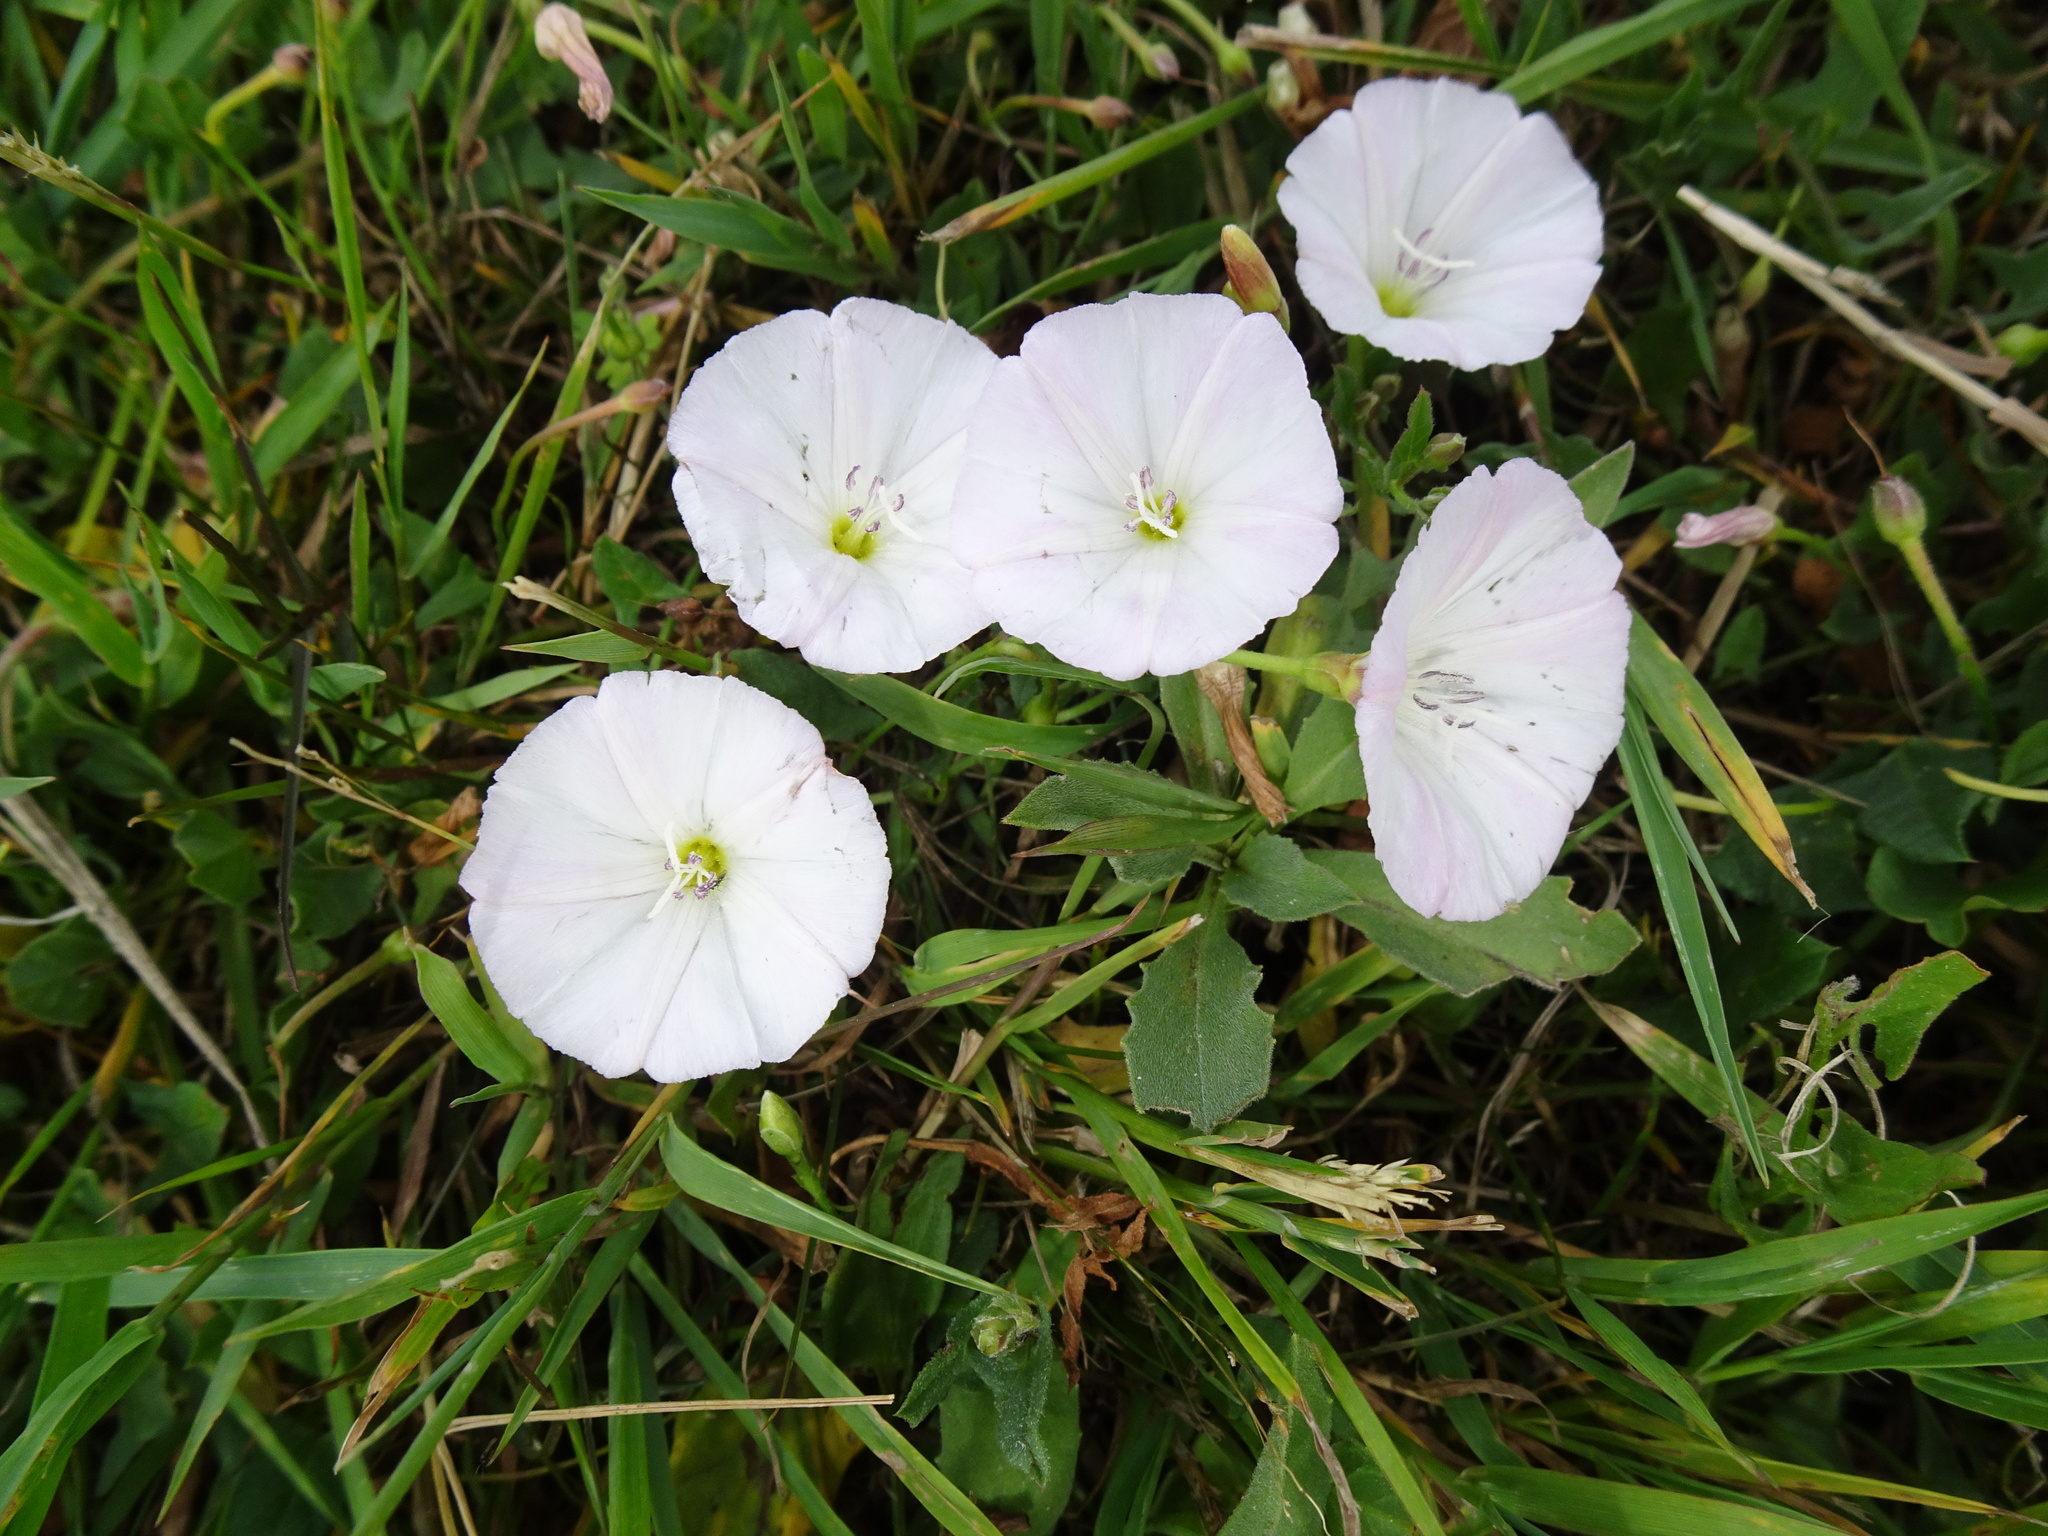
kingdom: Plantae
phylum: Tracheophyta
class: Magnoliopsida
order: Solanales
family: Convolvulaceae
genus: Convolvulus
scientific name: Convolvulus arvensis
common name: Field bindweed
